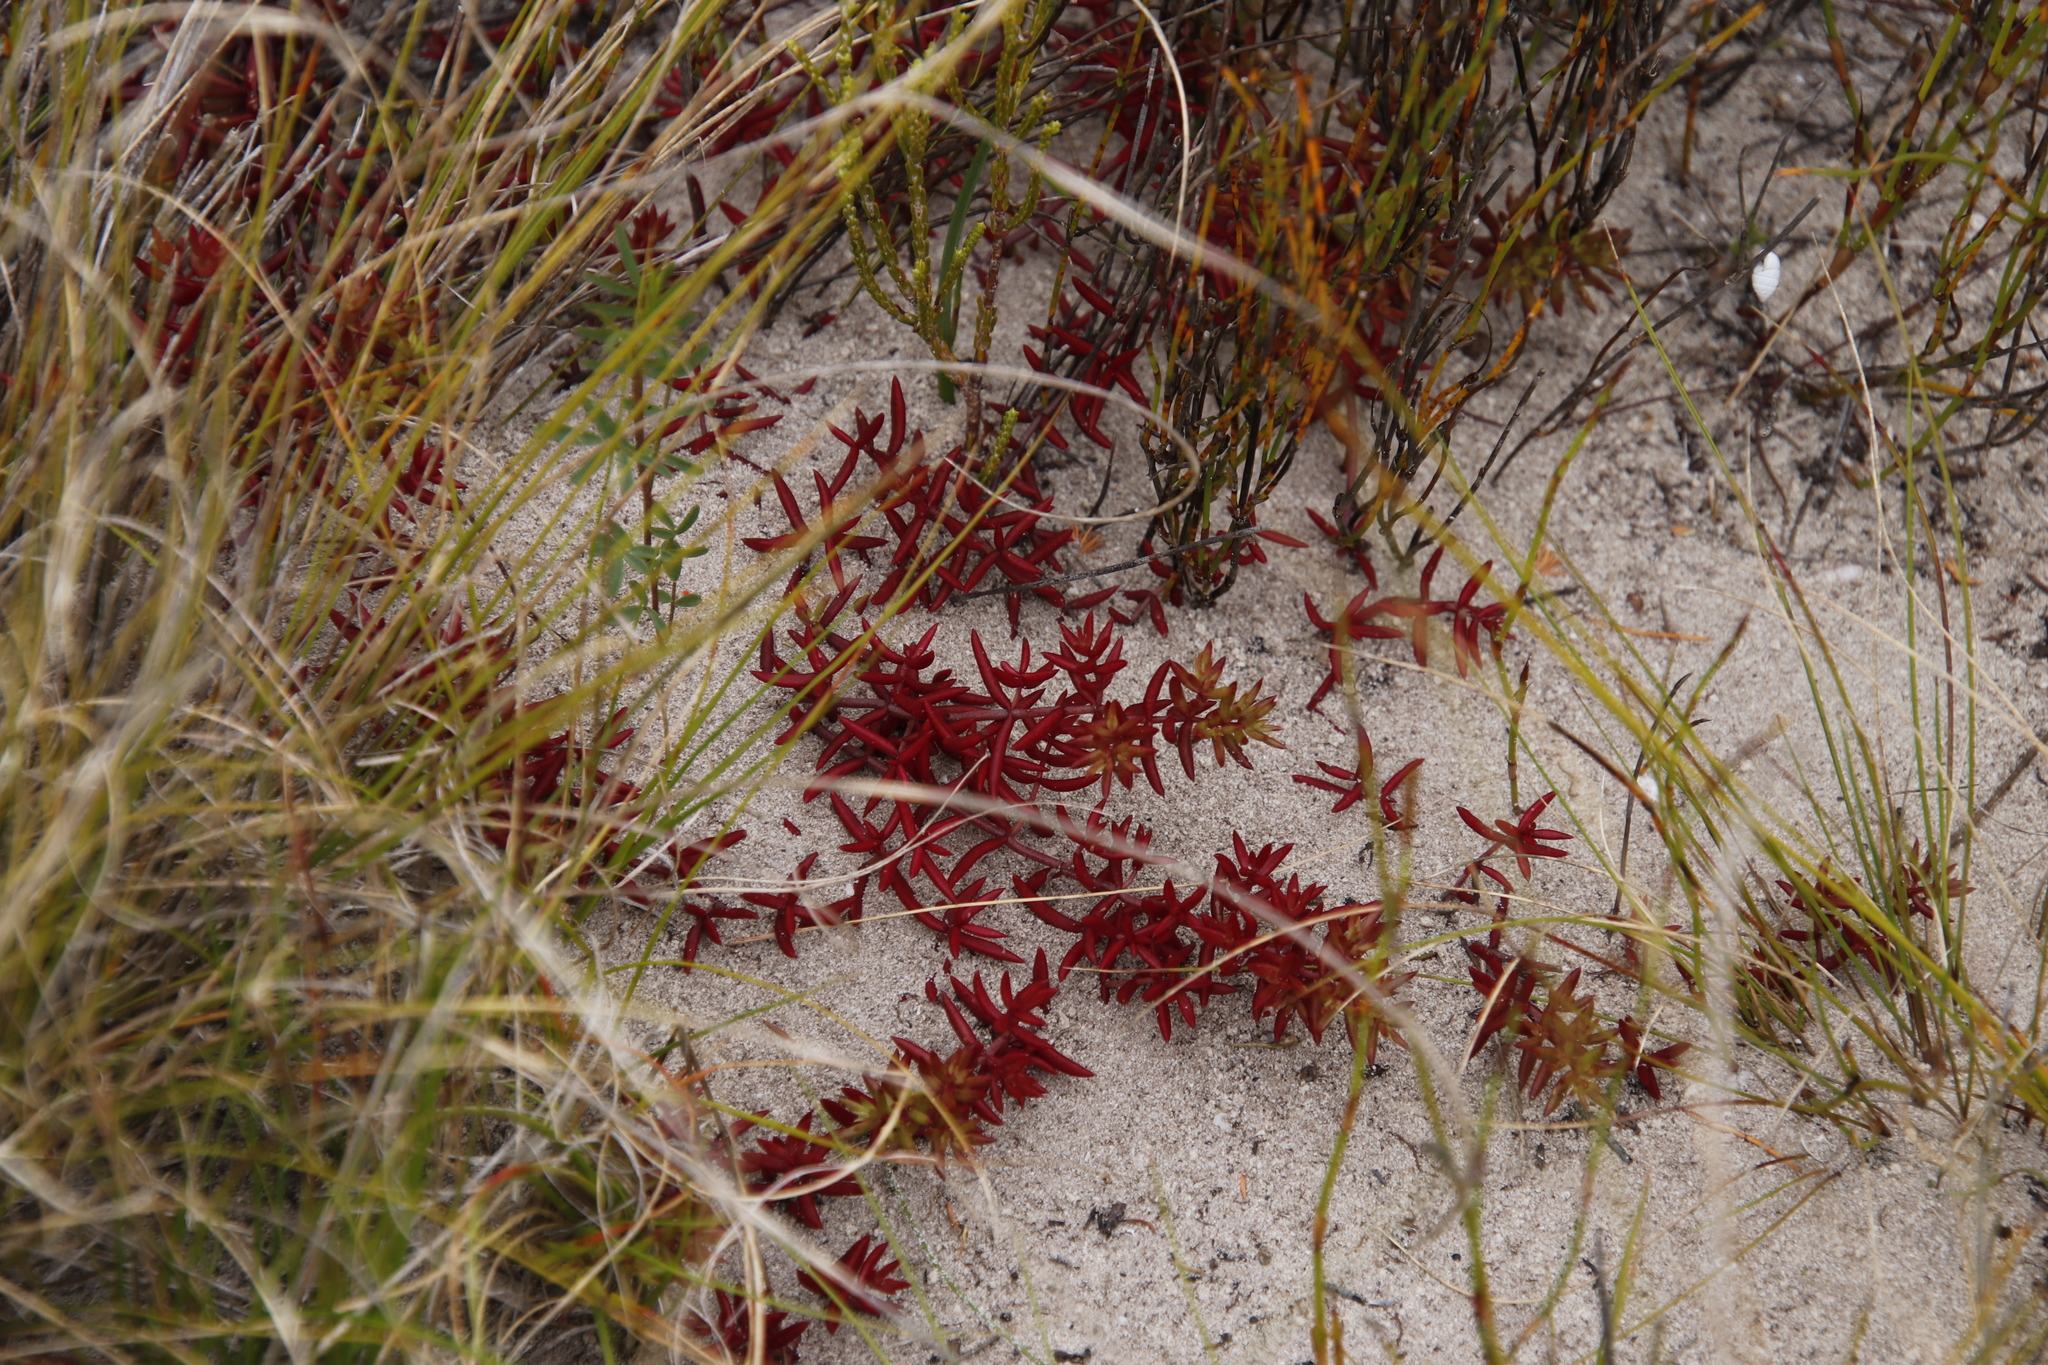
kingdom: Plantae
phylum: Tracheophyta
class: Magnoliopsida
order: Saxifragales
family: Crassulaceae
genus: Crassula
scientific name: Crassula expansa
